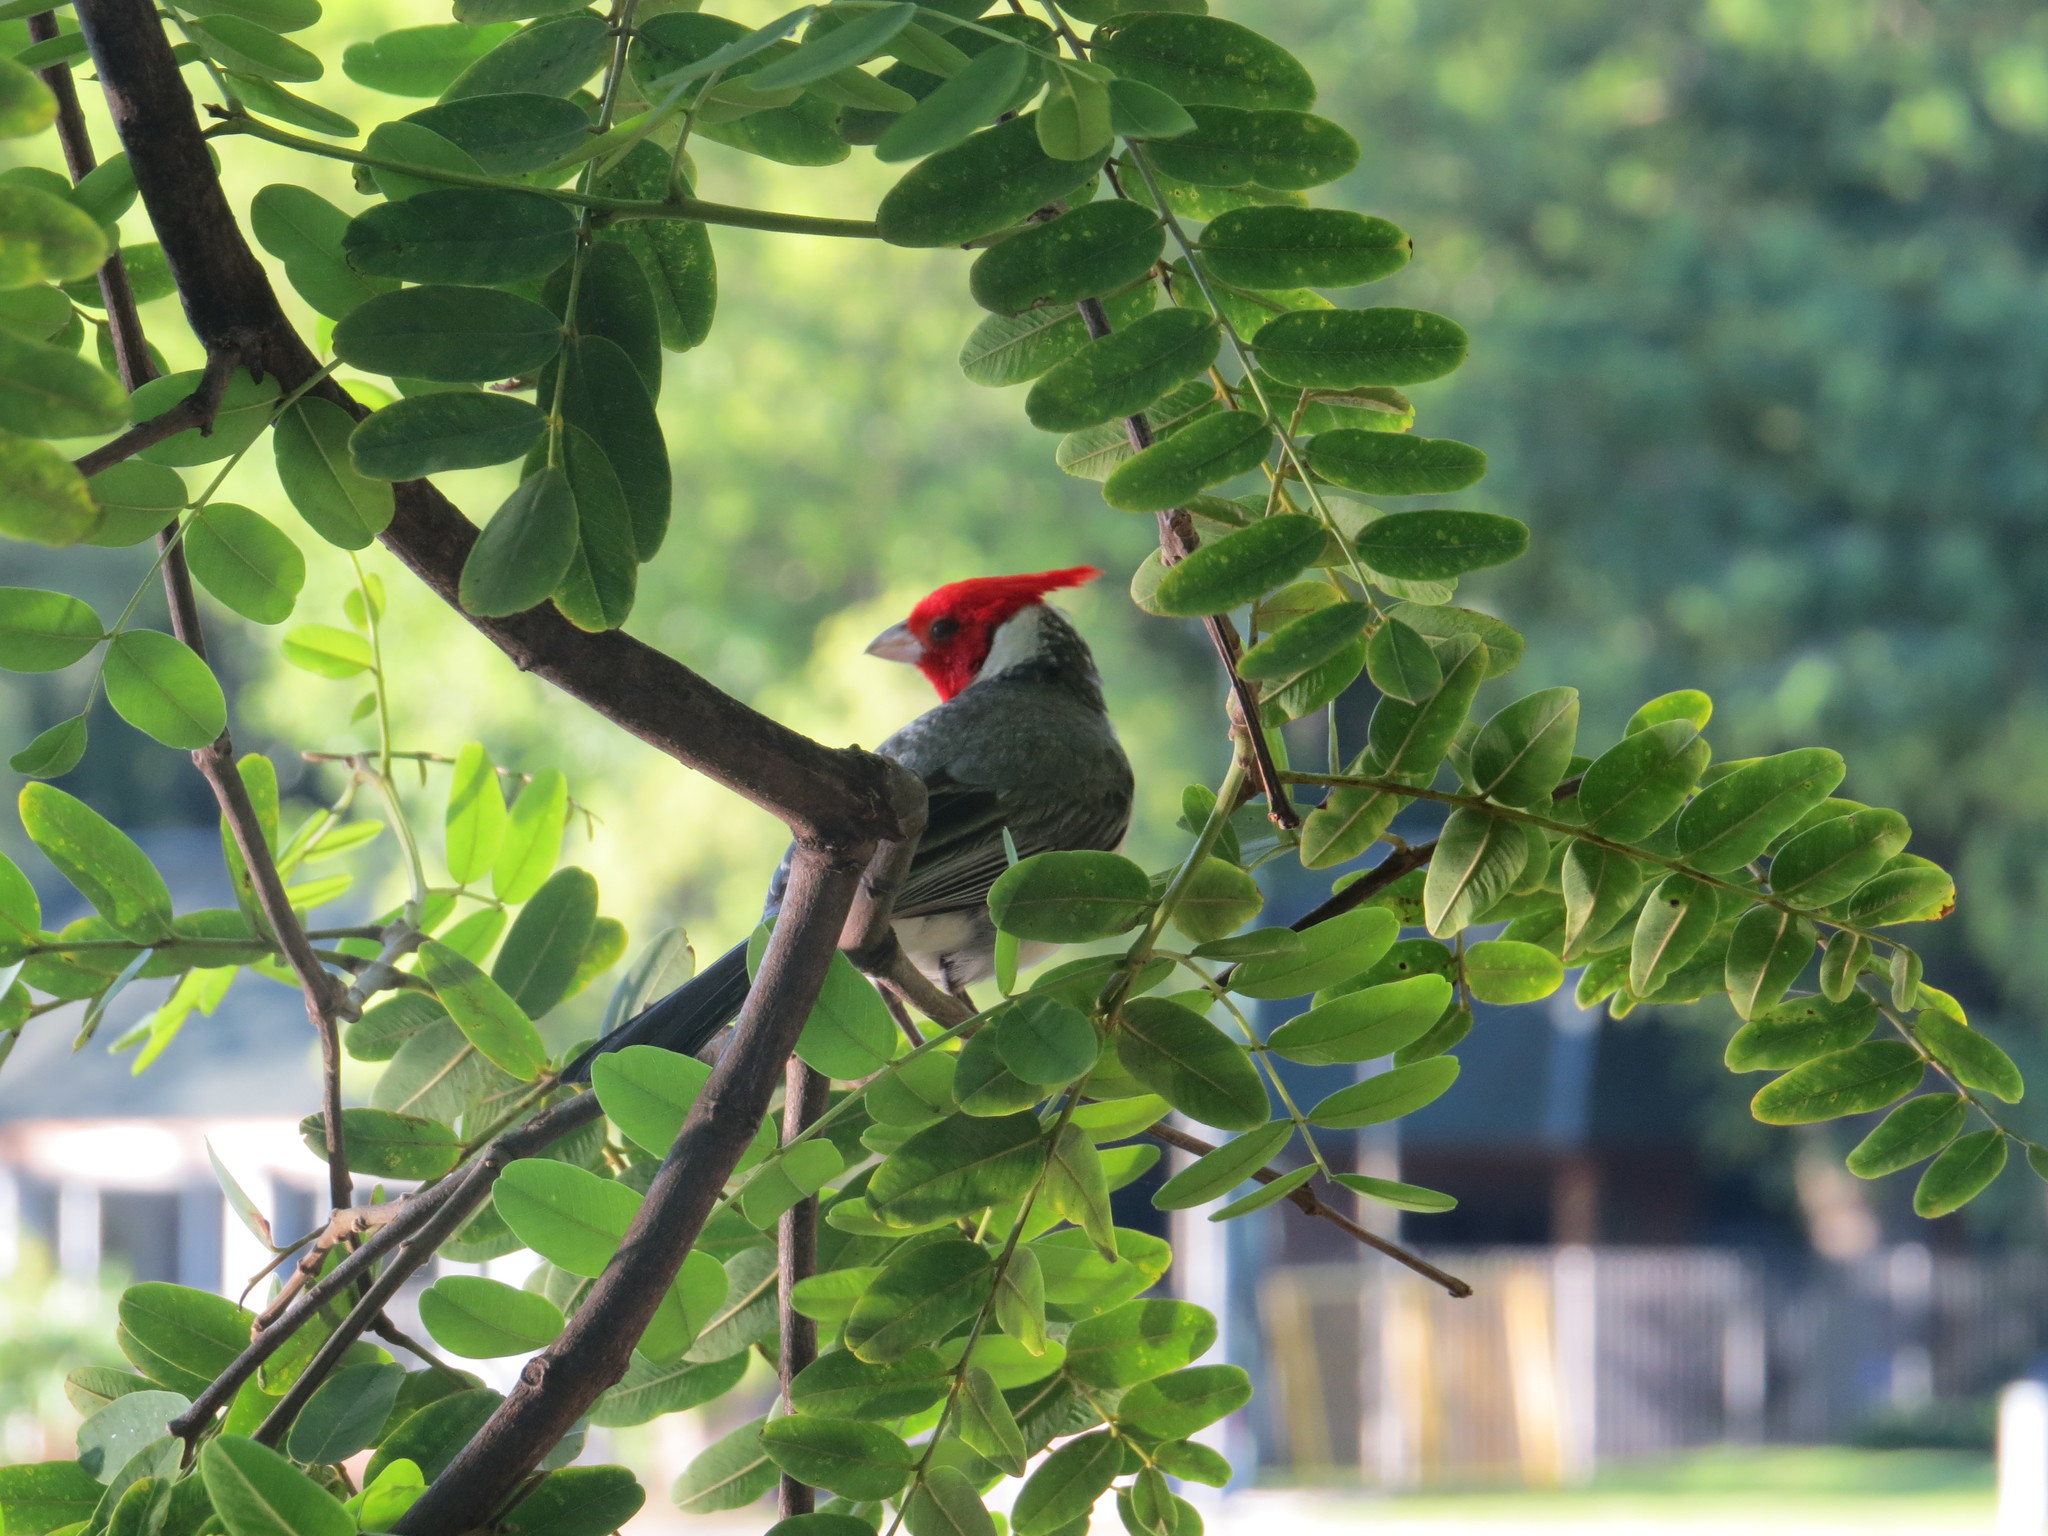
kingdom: Animalia
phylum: Chordata
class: Aves
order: Passeriformes
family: Thraupidae
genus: Paroaria
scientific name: Paroaria coronata
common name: Red-crested cardinal
